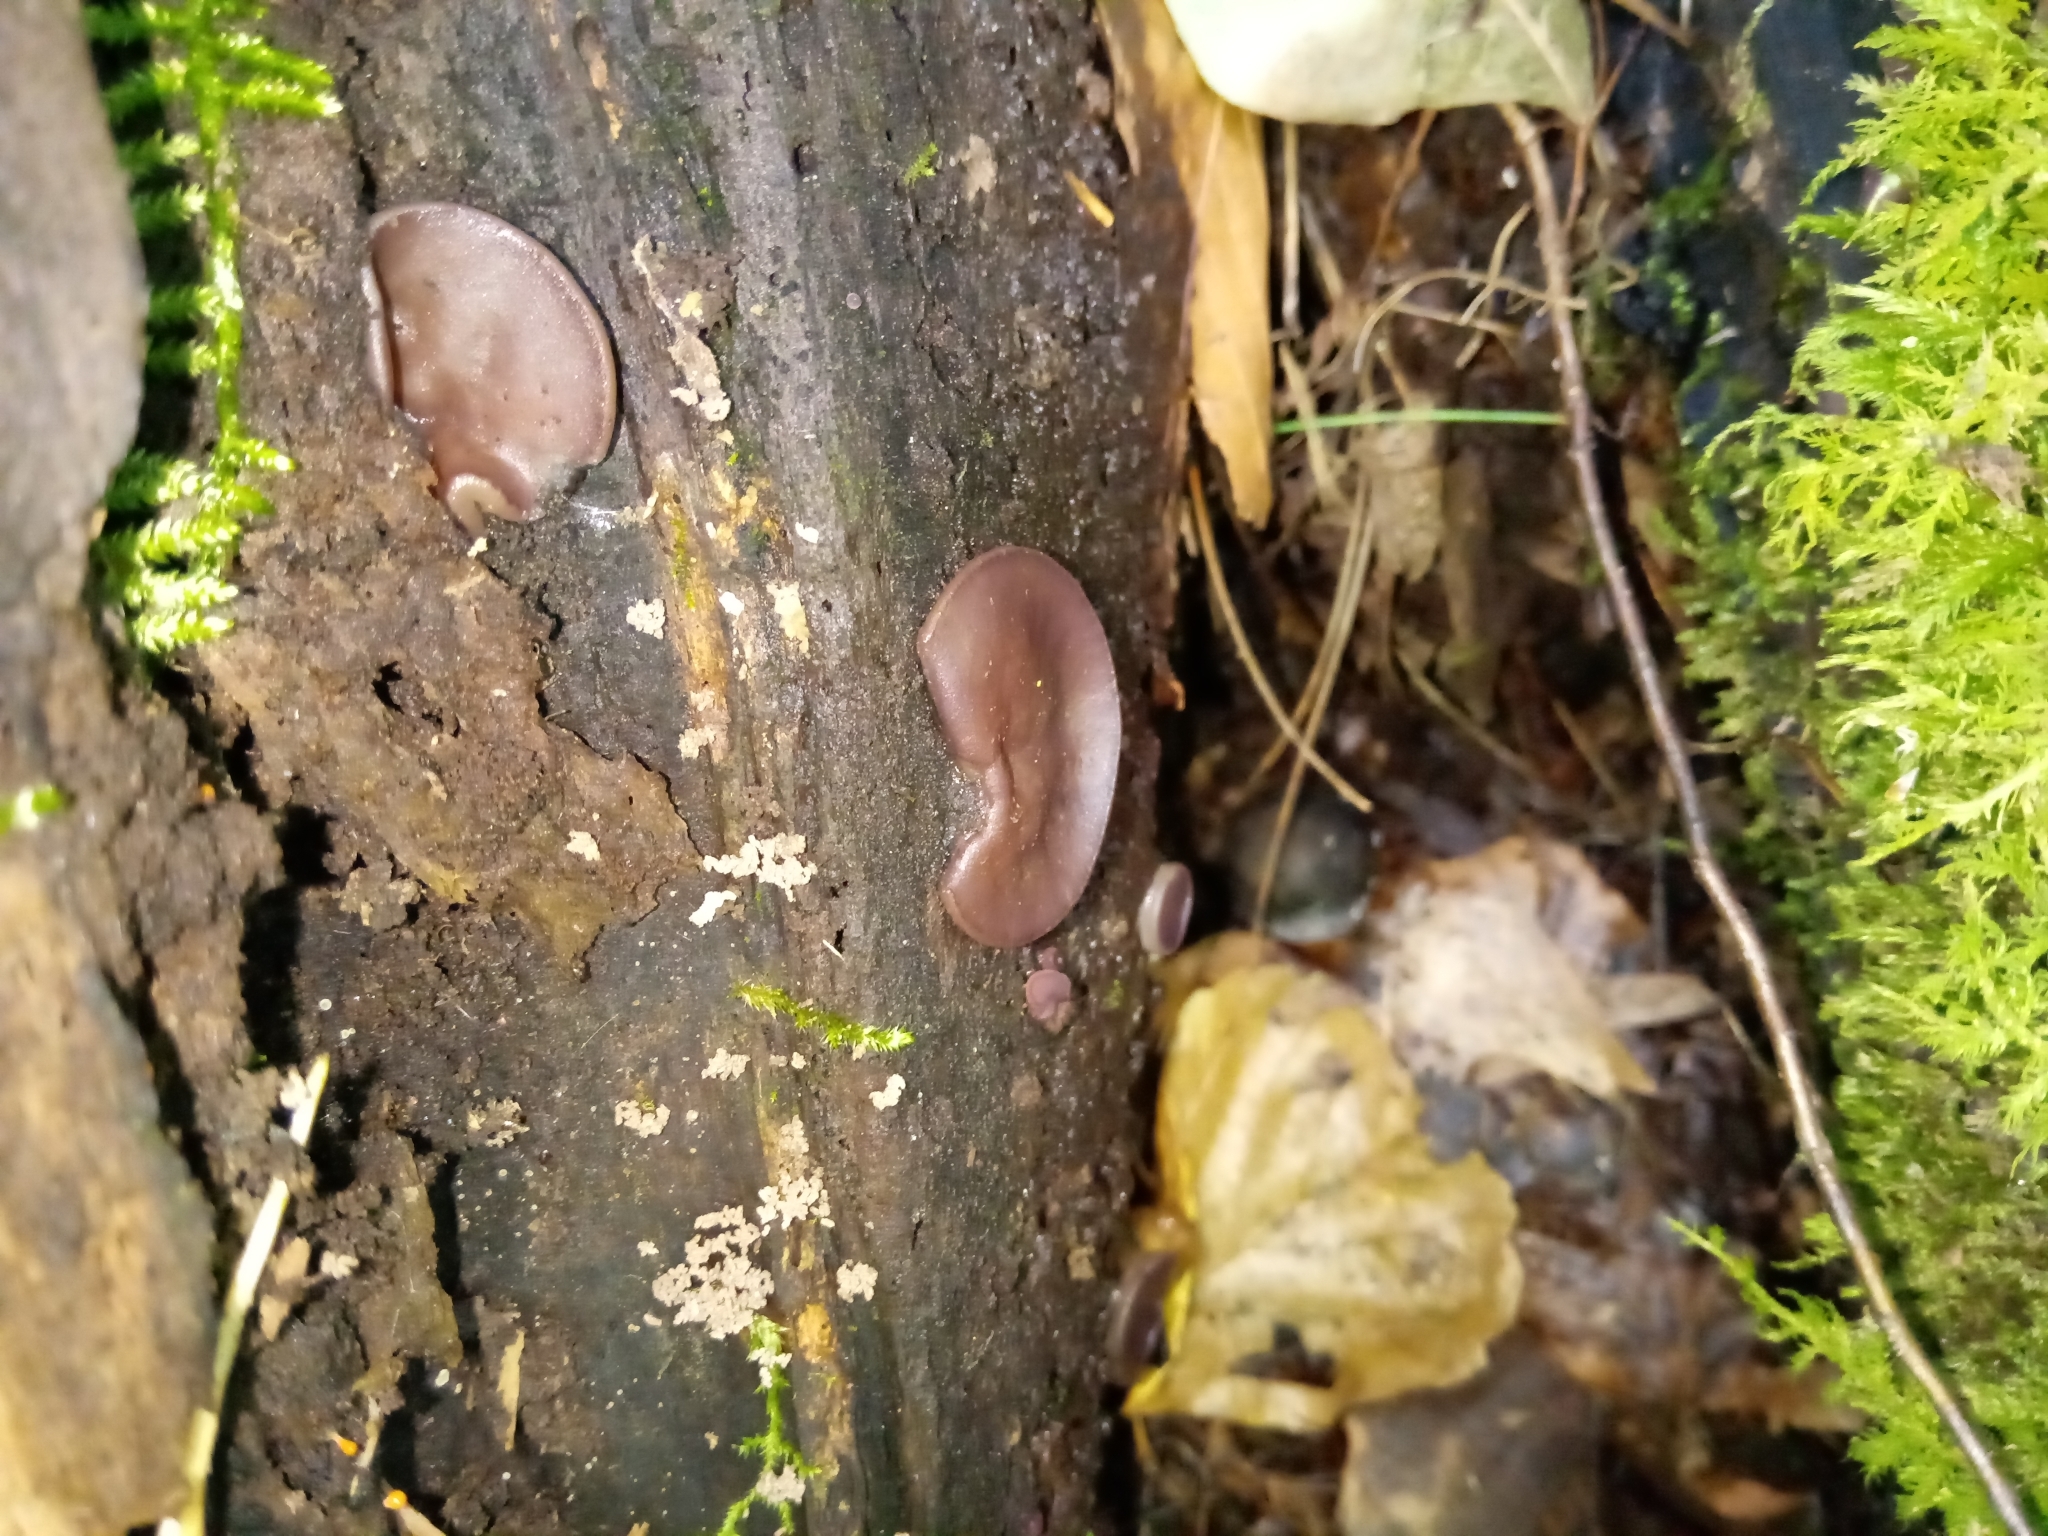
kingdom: Fungi
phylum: Ascomycota
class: Pezizomycetes
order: Pezizales
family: Pezizaceae
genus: Pachyella
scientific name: Pachyella clypeata
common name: Copper penny fungus
